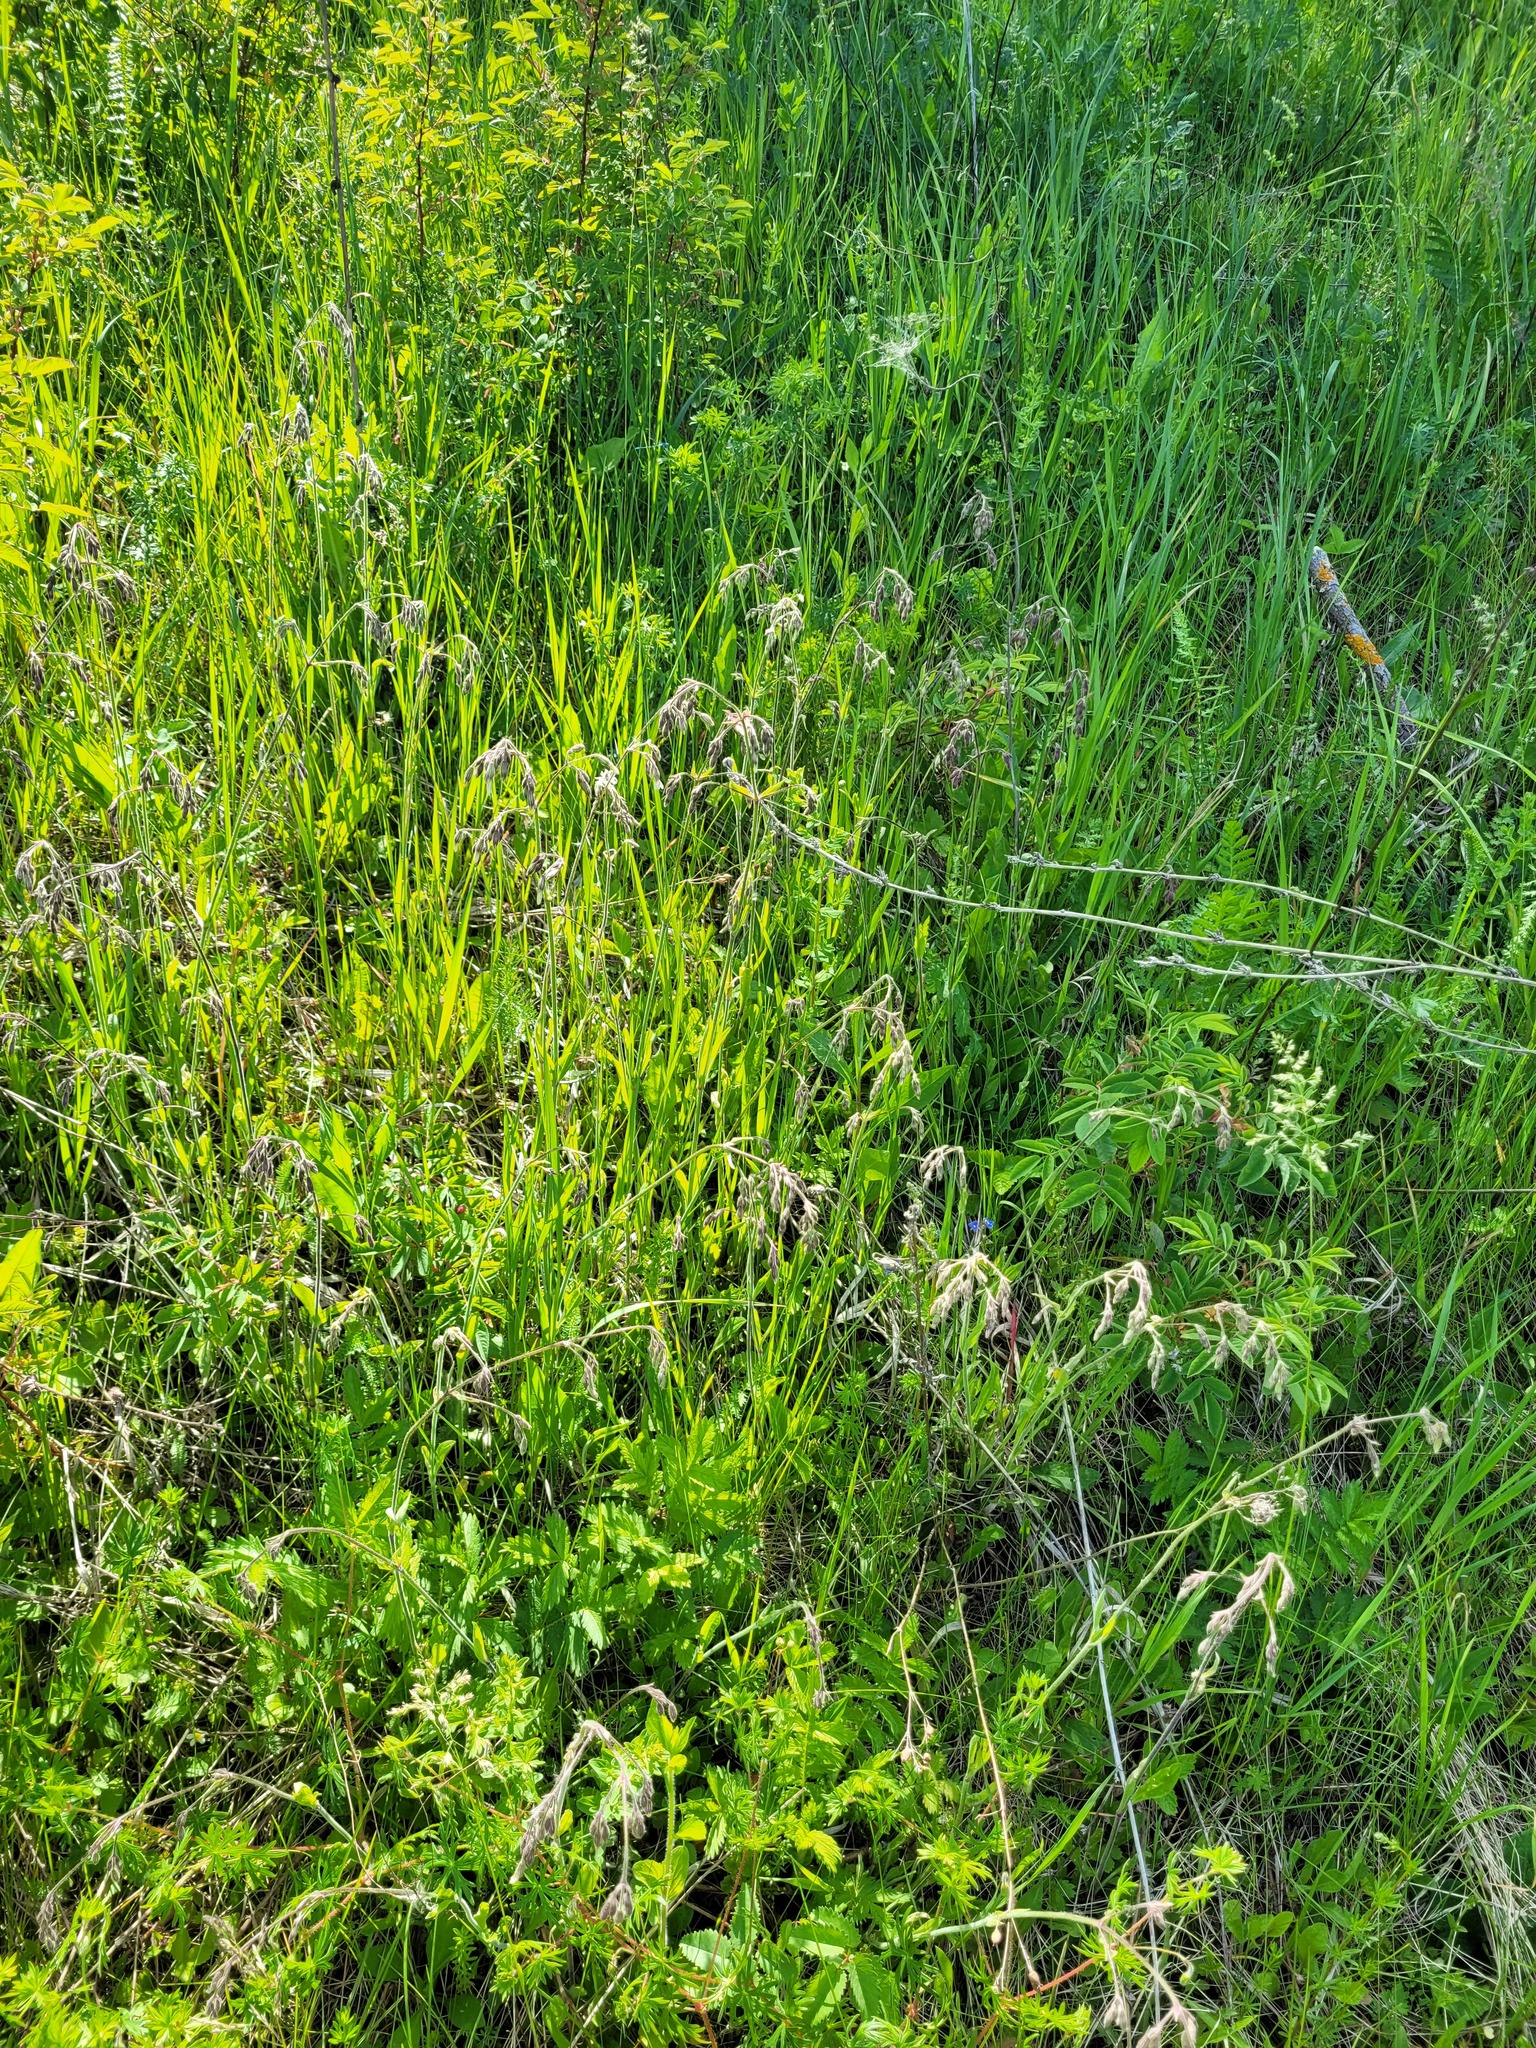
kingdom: Plantae
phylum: Tracheophyta
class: Magnoliopsida
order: Caryophyllales
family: Caryophyllaceae
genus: Silene
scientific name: Silene nutans
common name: Nottingham catchfly
